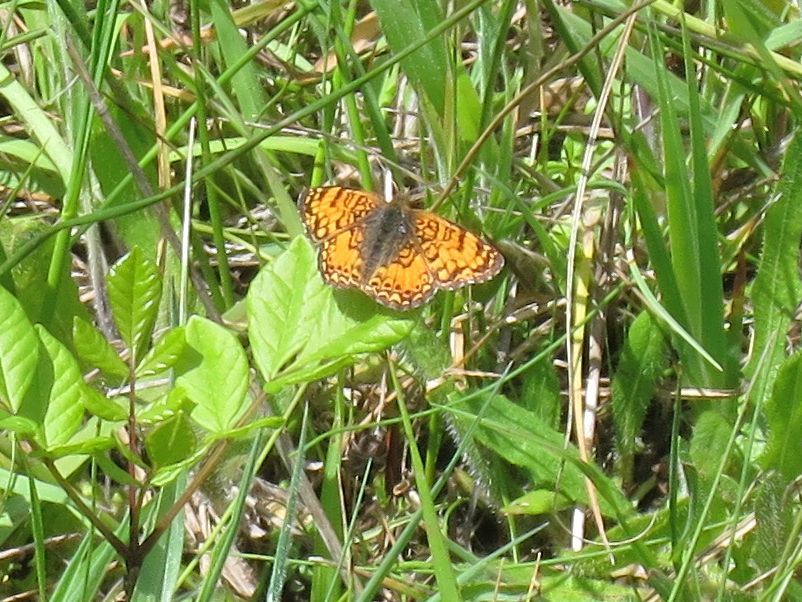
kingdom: Animalia
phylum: Arthropoda
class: Insecta
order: Lepidoptera
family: Nymphalidae
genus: Eresia
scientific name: Eresia aveyrona
